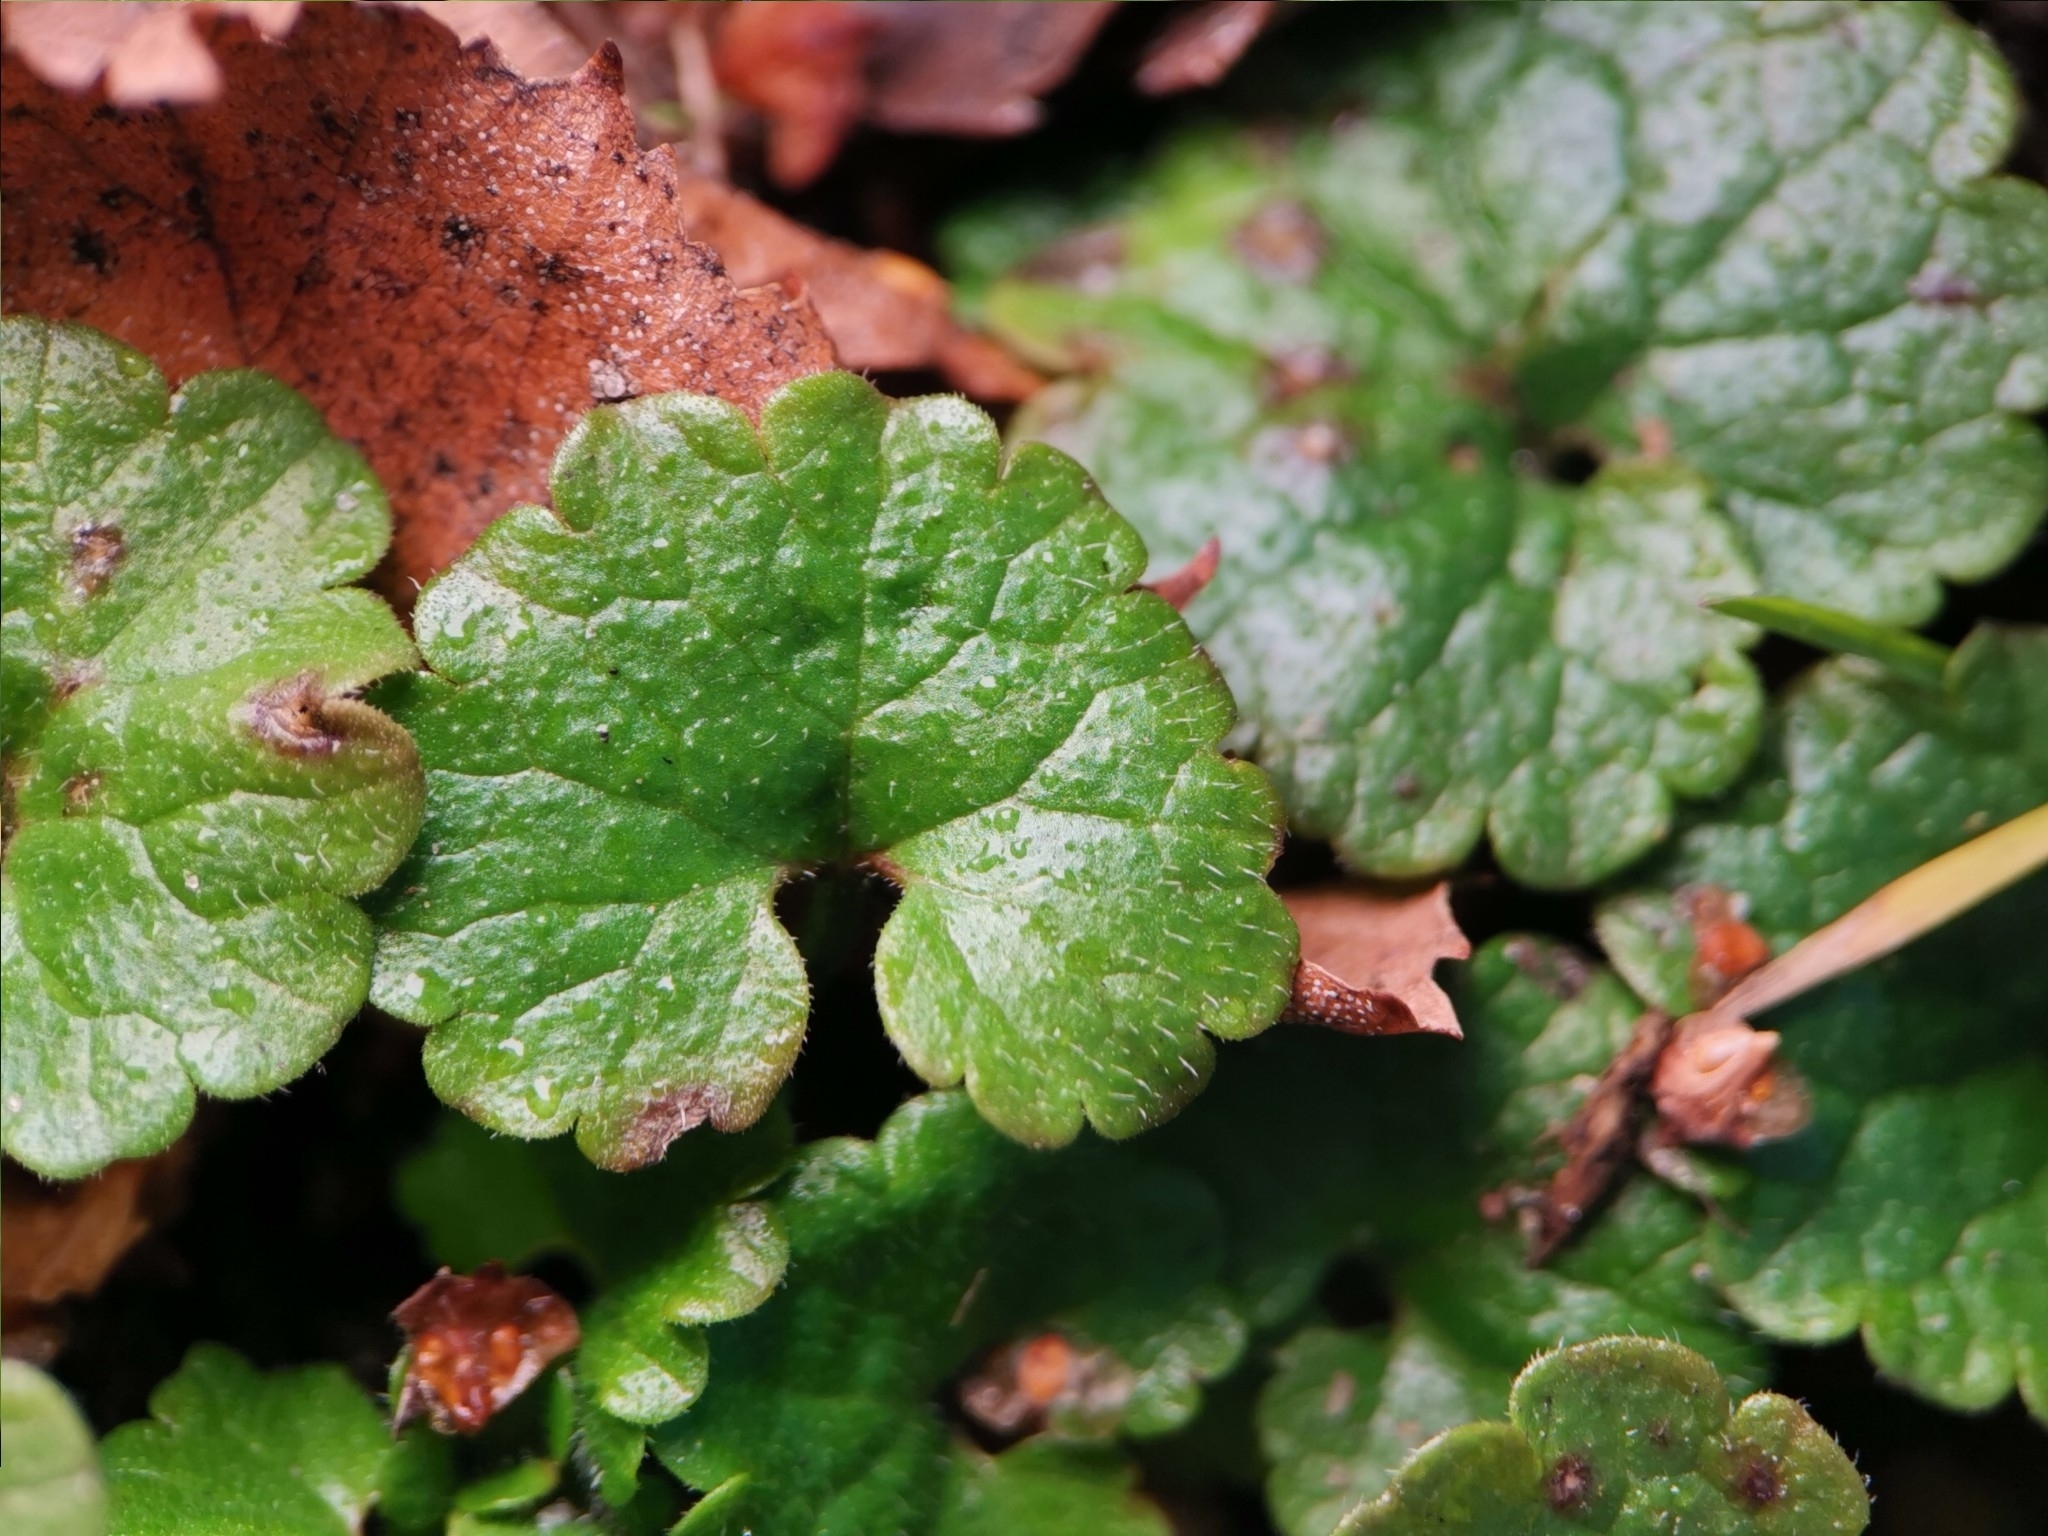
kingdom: Plantae
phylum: Tracheophyta
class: Magnoliopsida
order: Lamiales
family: Lamiaceae
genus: Glechoma
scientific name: Glechoma hederacea
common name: Ground ivy
